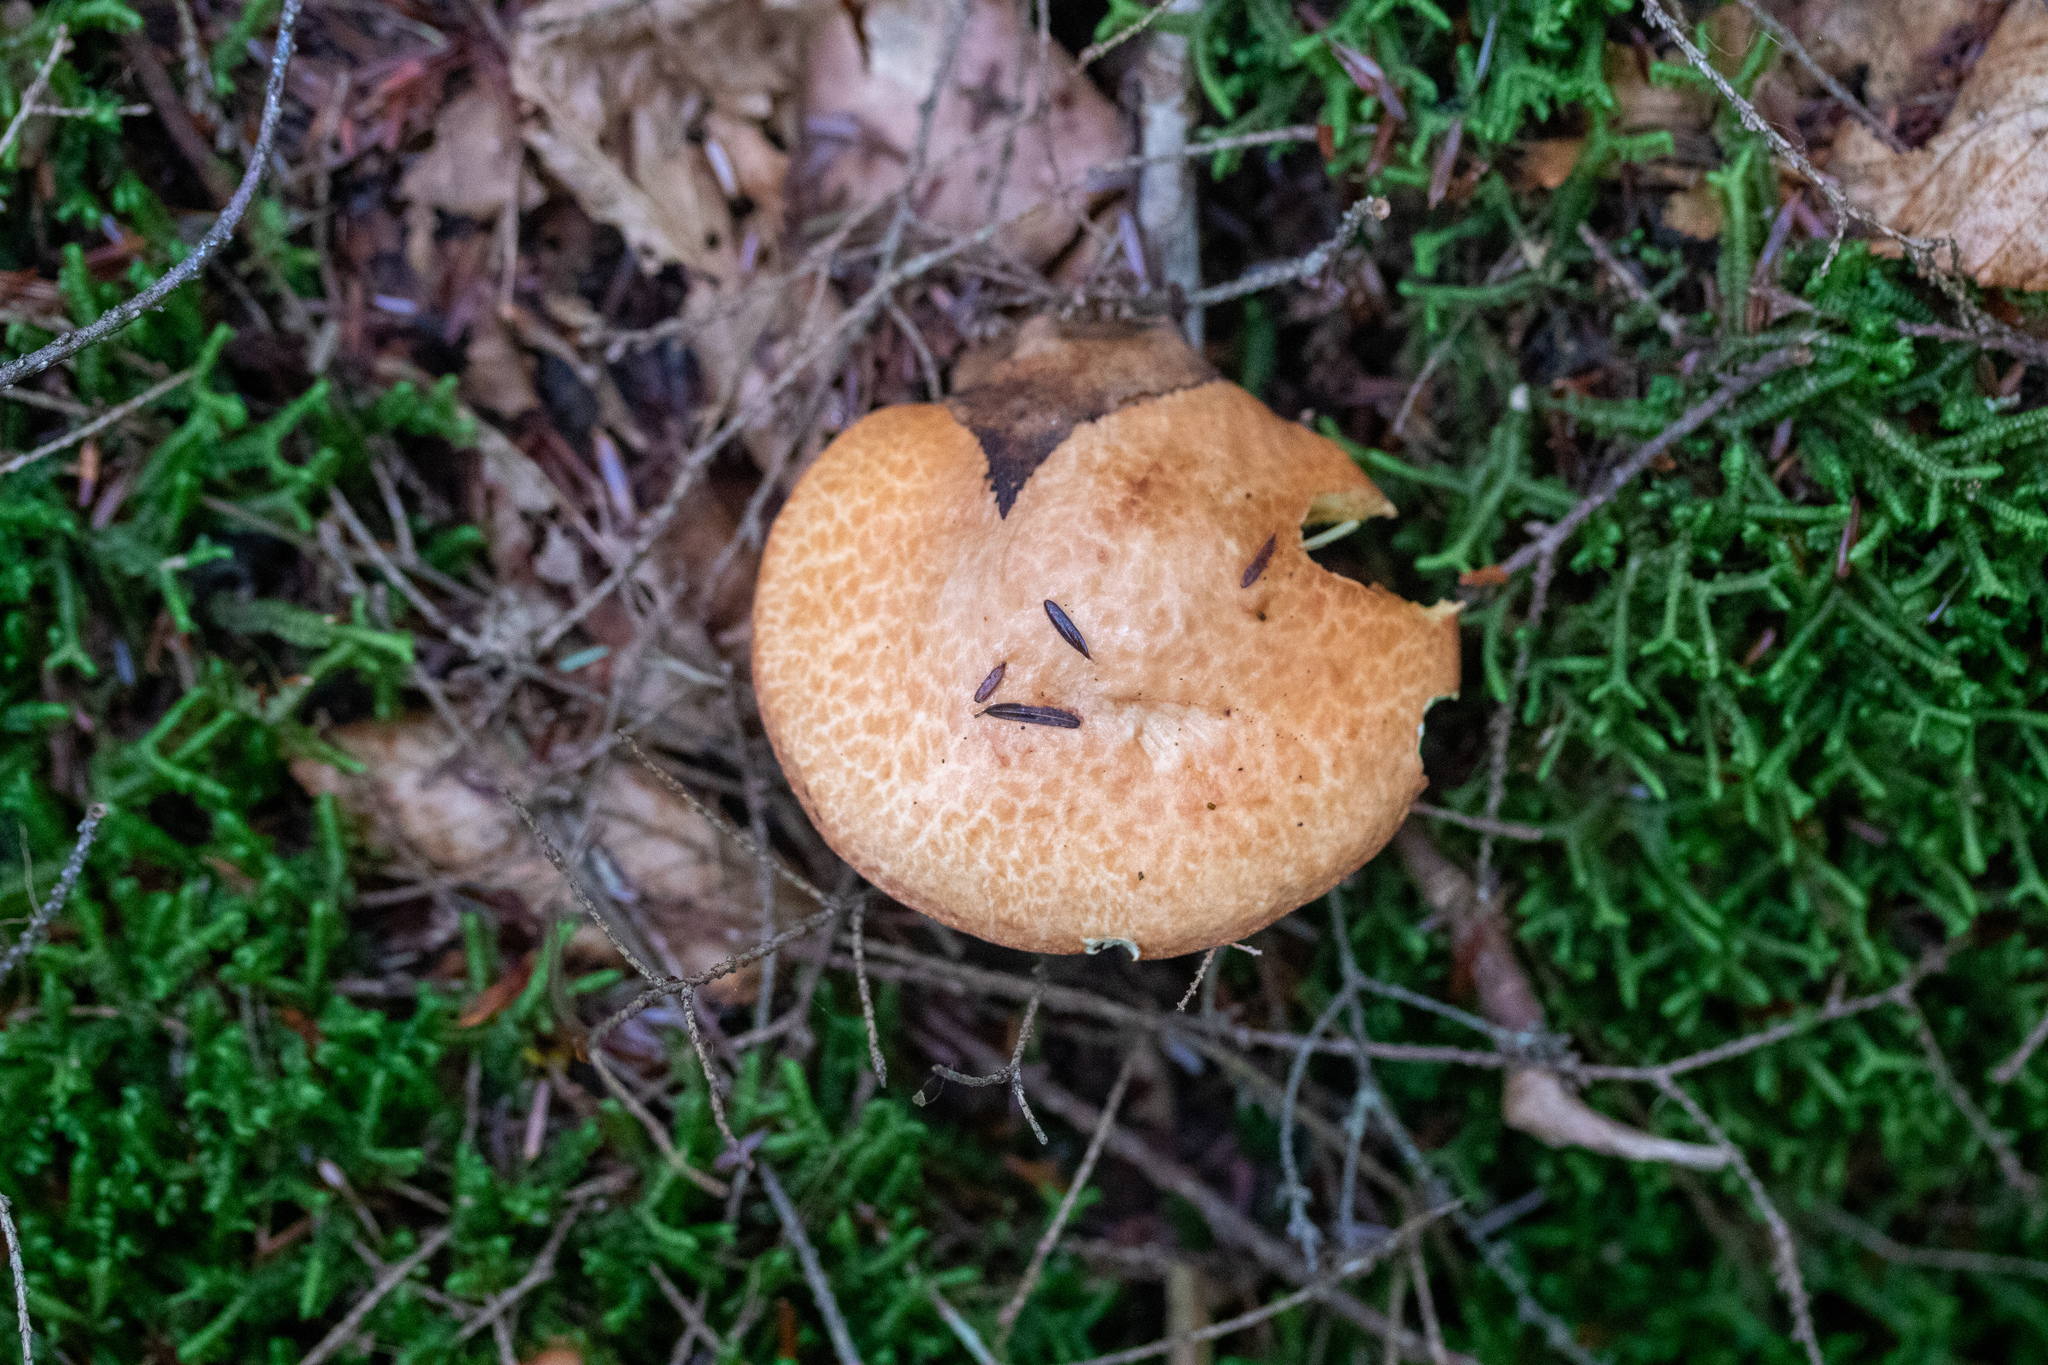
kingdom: Fungi
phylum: Basidiomycota
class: Agaricomycetes
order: Boletales
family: Suillaceae
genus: Suillus
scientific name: Suillus granulatus
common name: Weeping bolete
